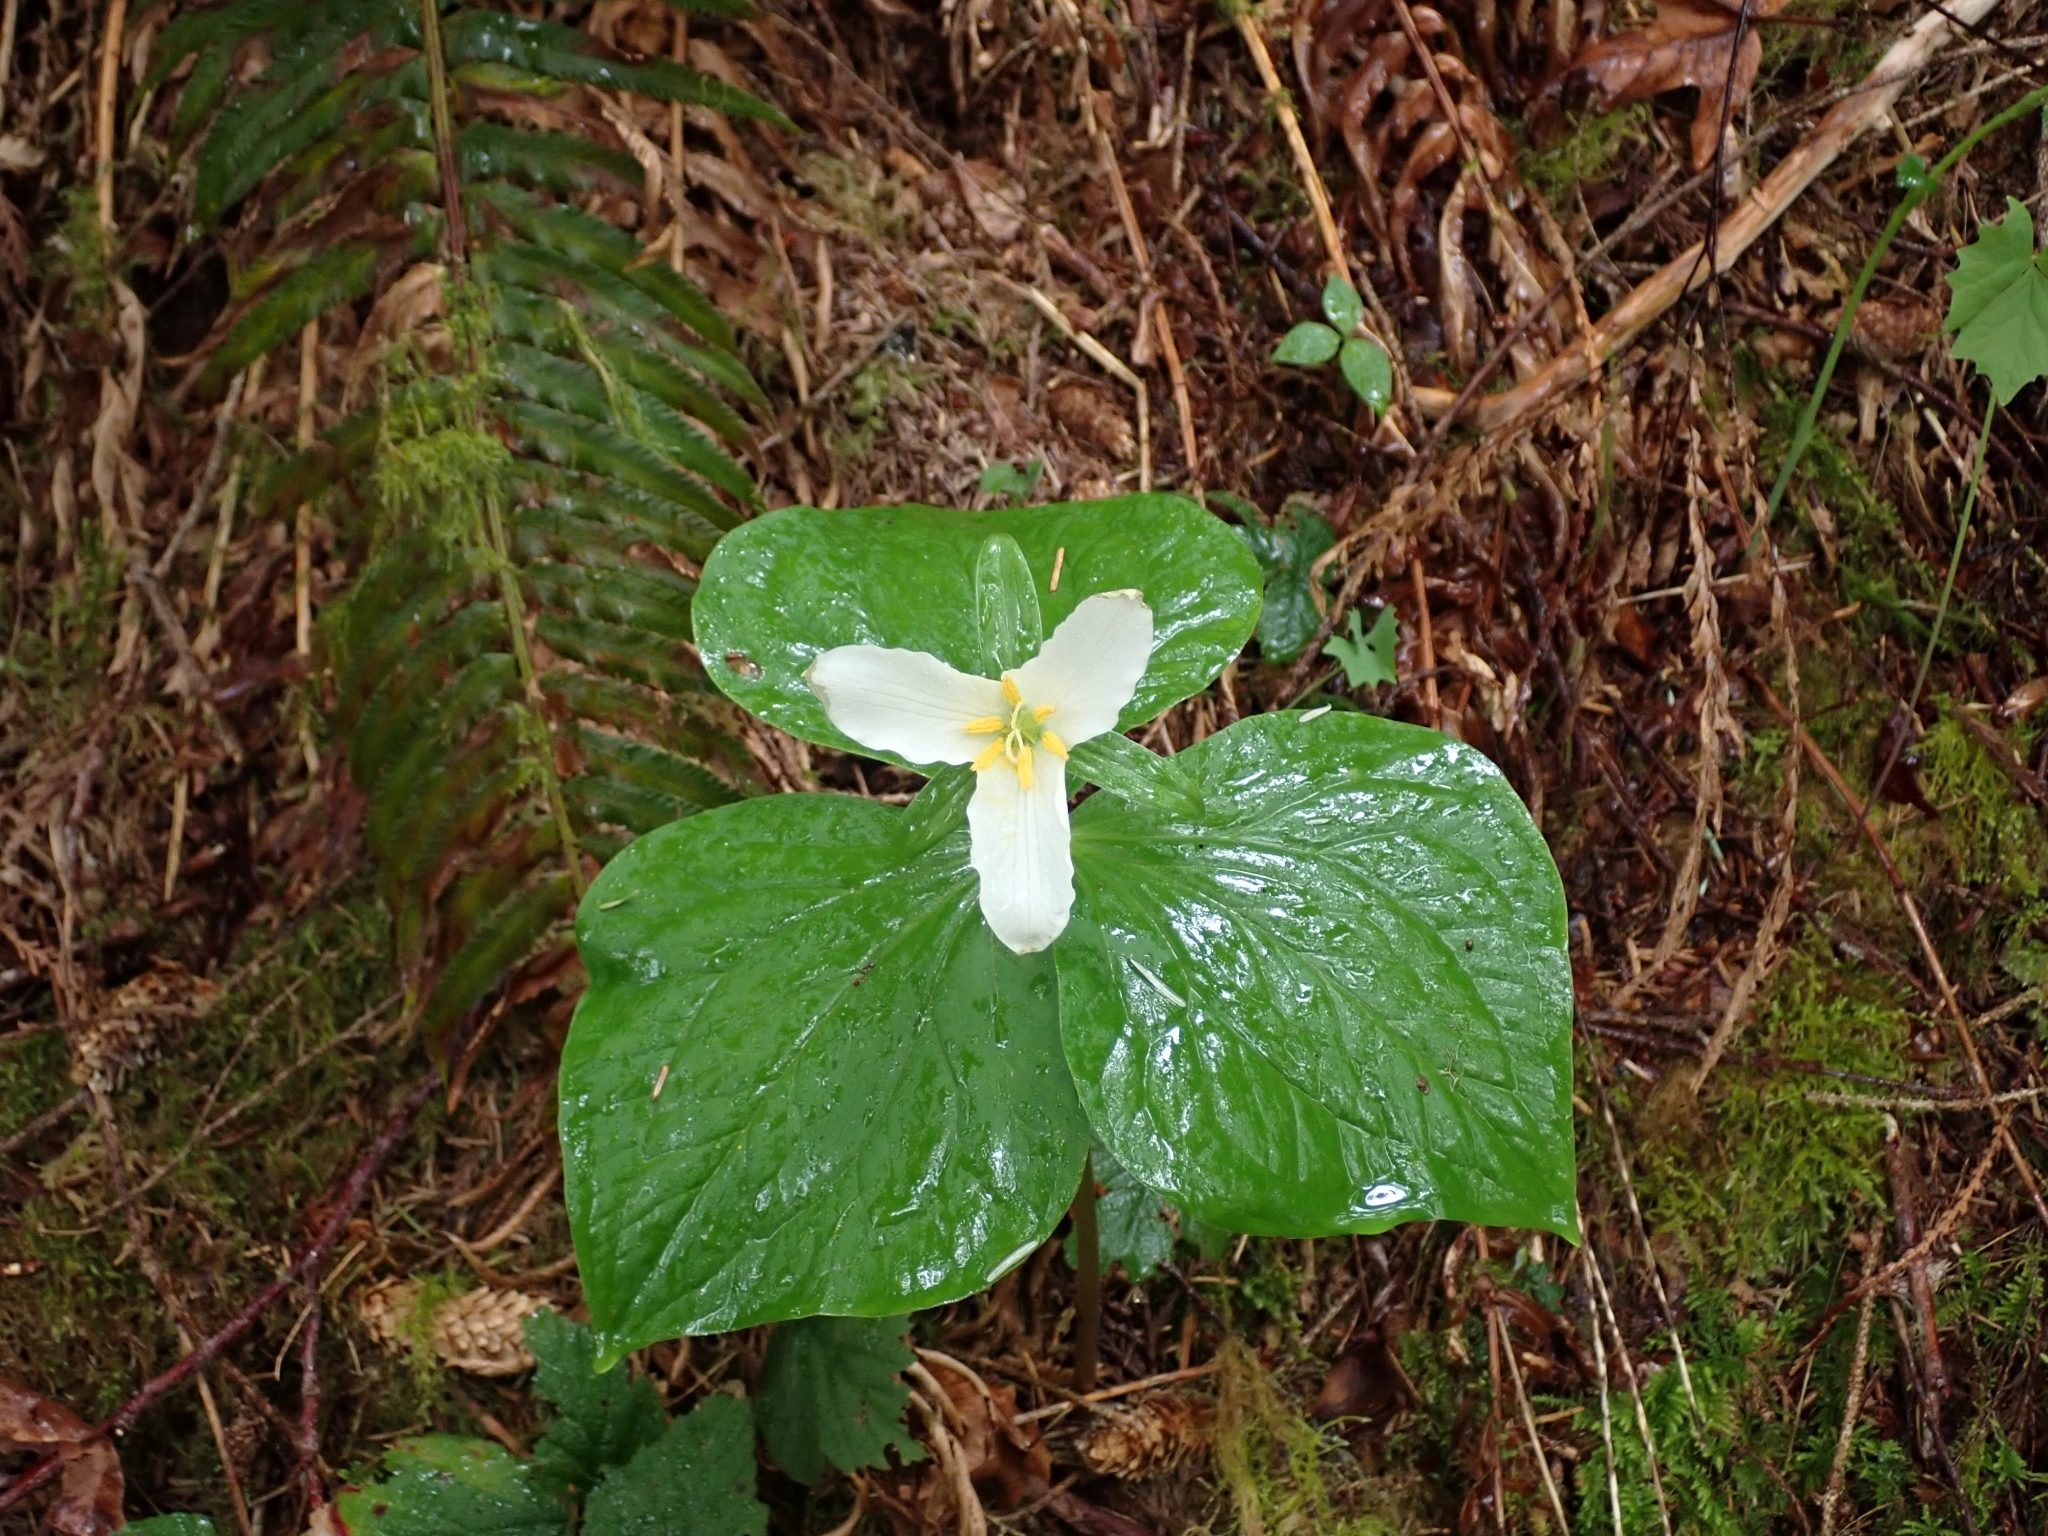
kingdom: Plantae
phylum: Tracheophyta
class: Liliopsida
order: Liliales
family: Melanthiaceae
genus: Trillium
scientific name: Trillium ovatum
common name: Pacific trillium
